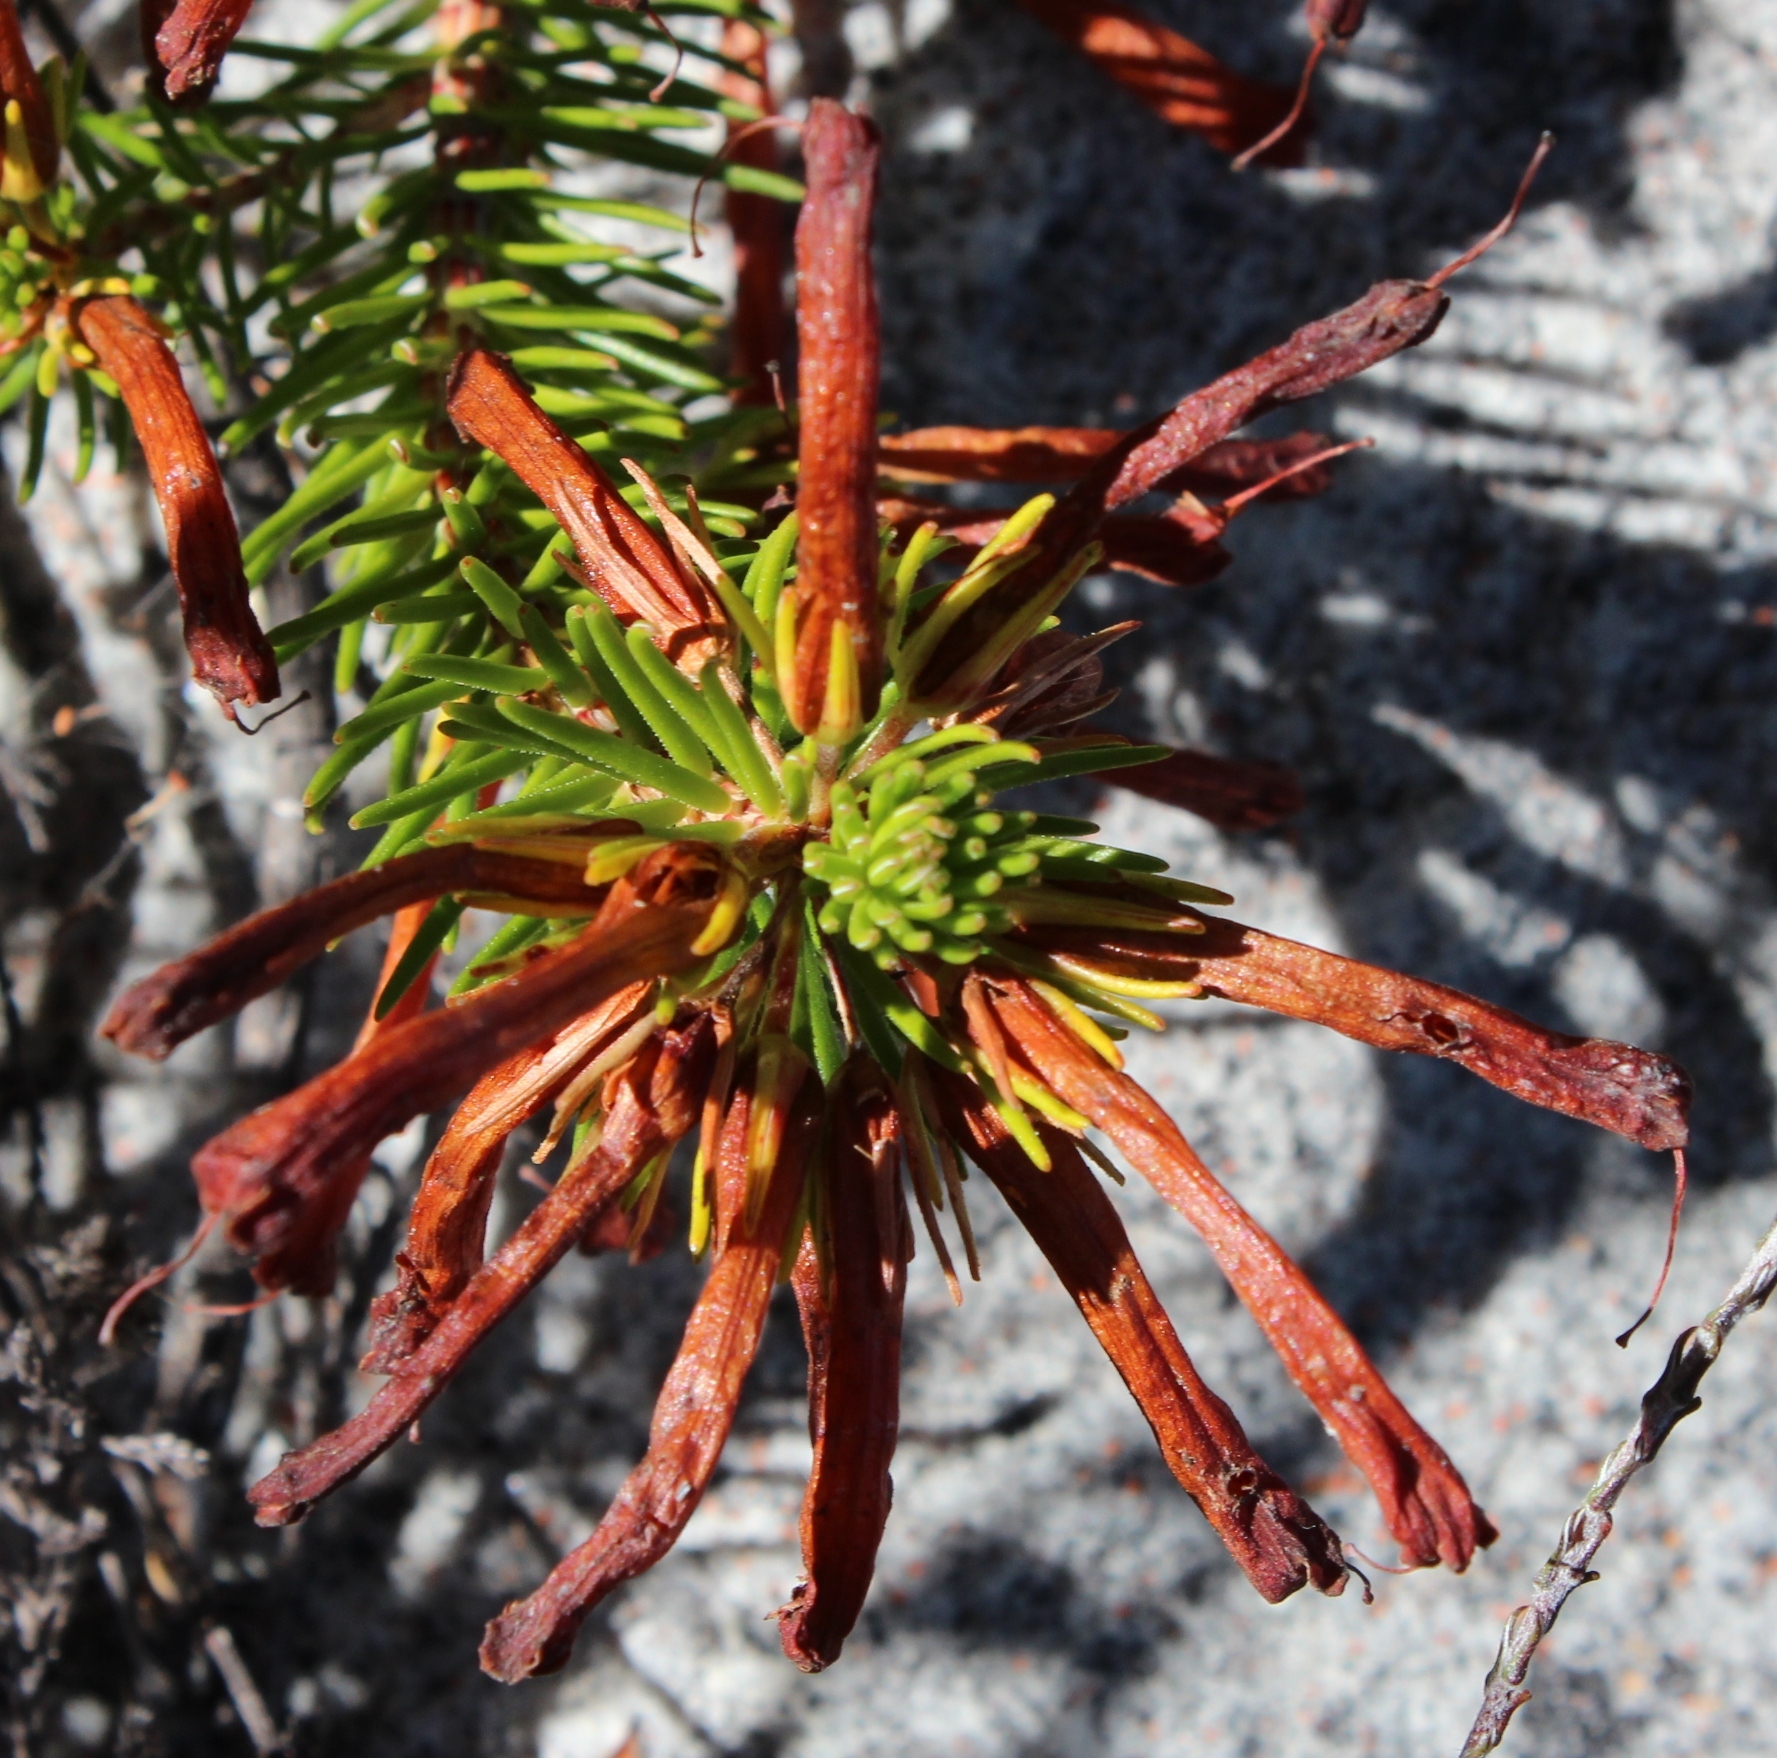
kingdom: Plantae
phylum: Tracheophyta
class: Magnoliopsida
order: Ericales
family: Ericaceae
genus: Erica
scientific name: Erica quadrisulcata
